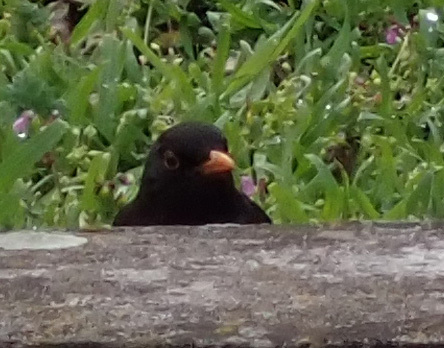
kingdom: Animalia
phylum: Chordata
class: Aves
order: Passeriformes
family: Turdidae
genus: Turdus
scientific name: Turdus merula
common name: Common blackbird
